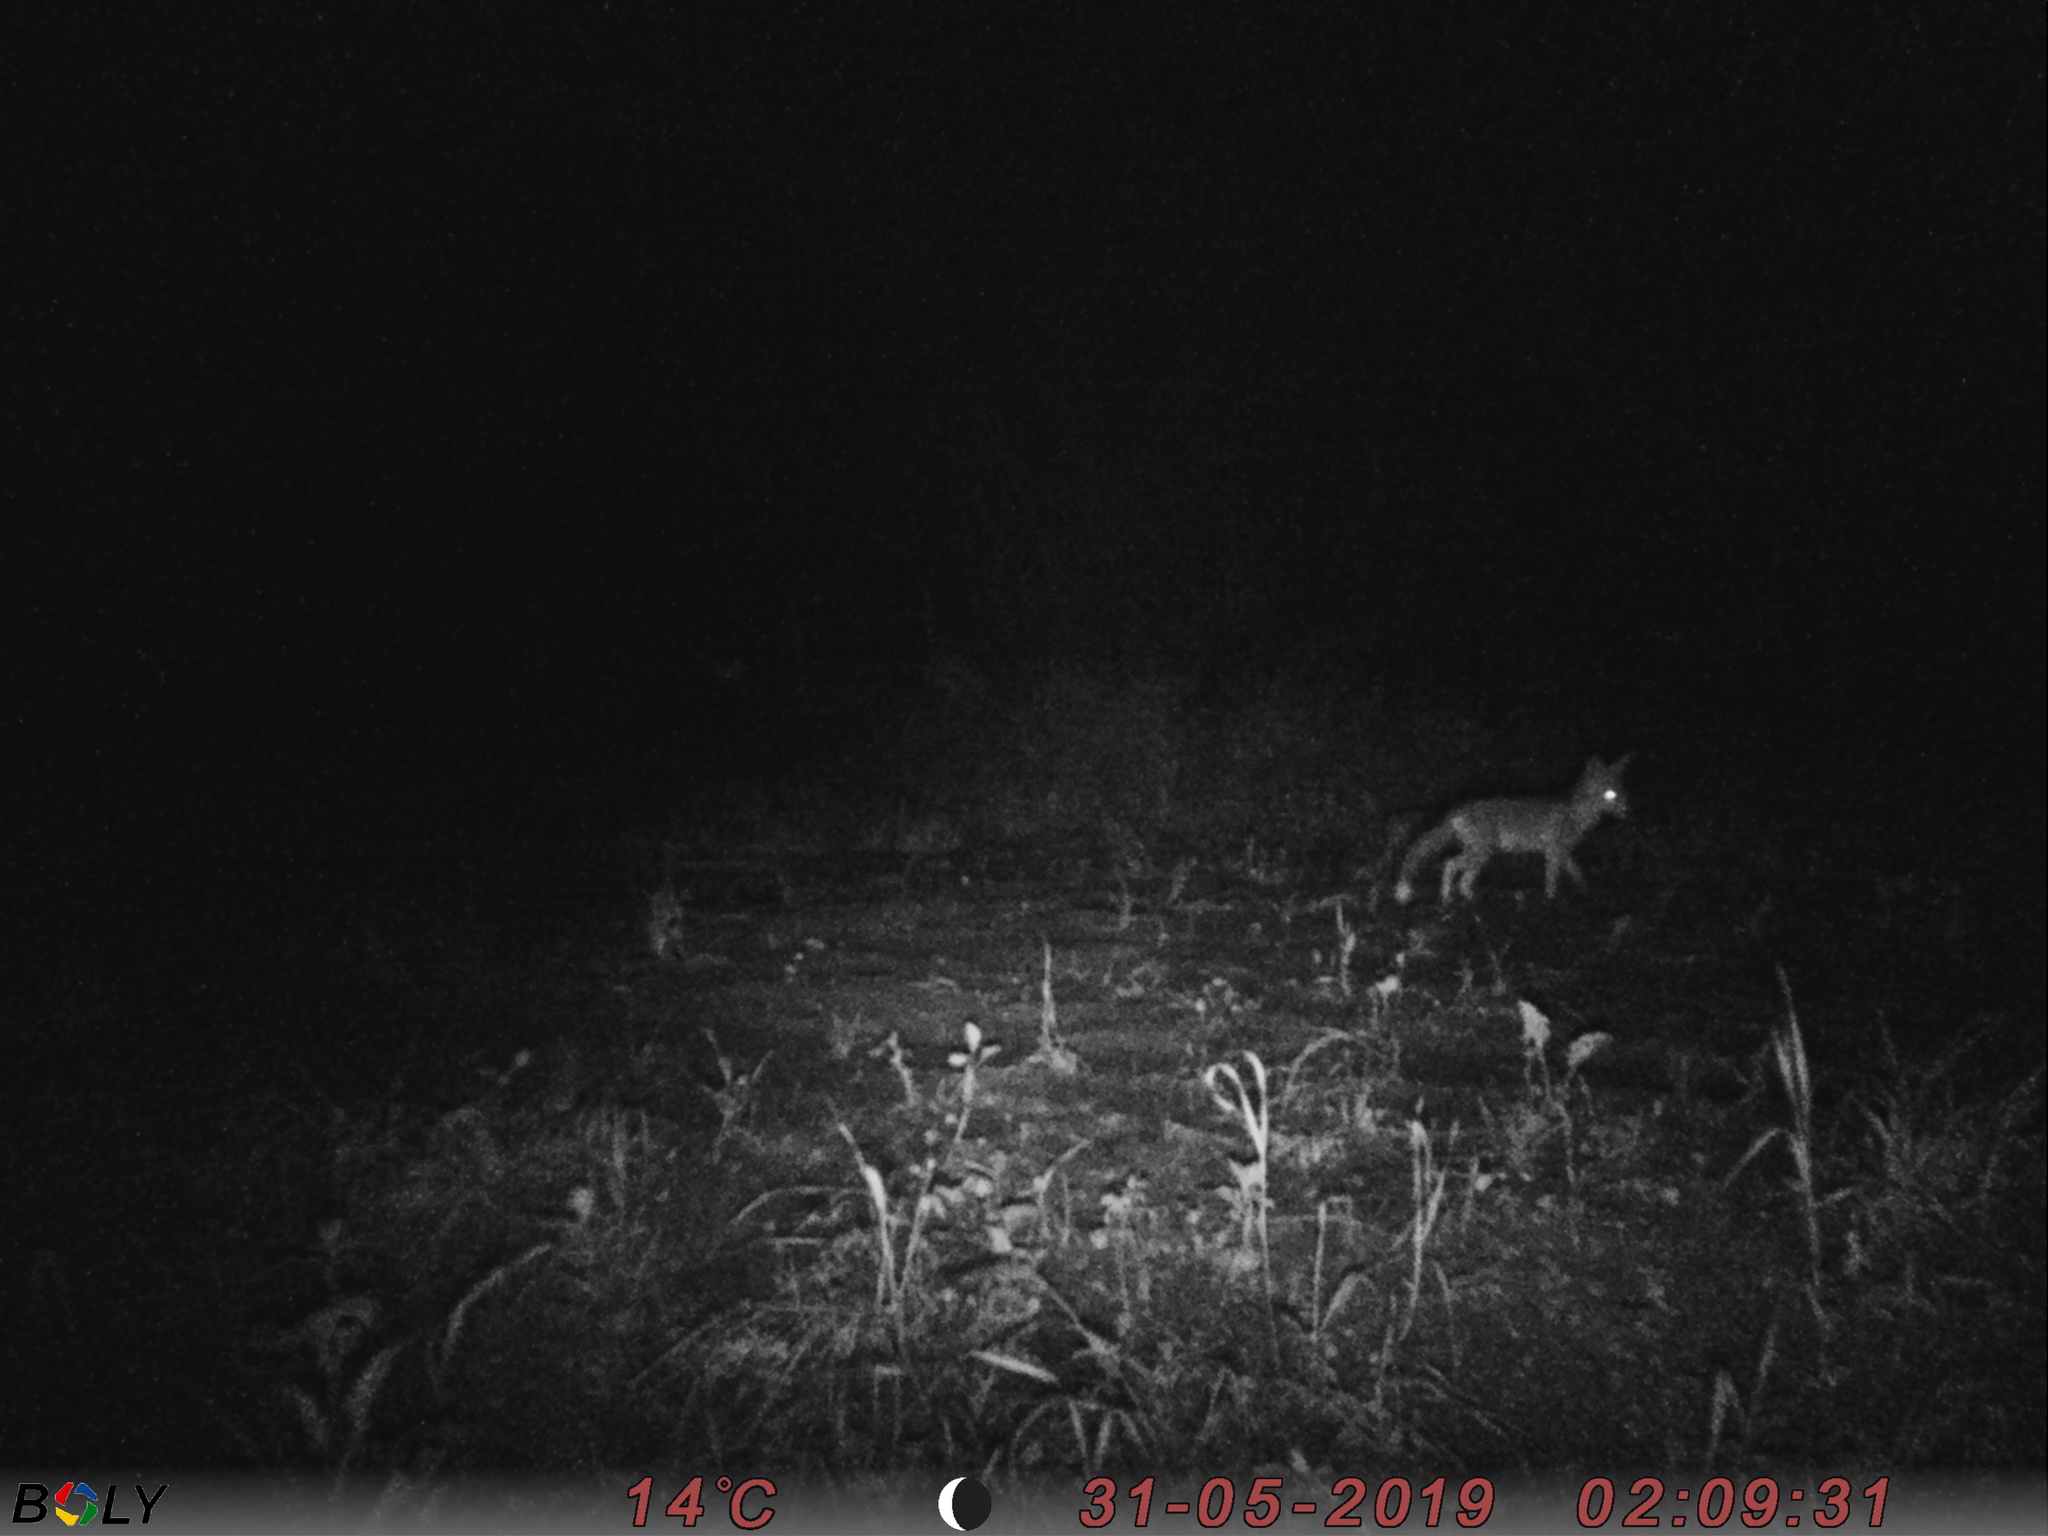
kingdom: Animalia
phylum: Chordata
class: Mammalia
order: Carnivora
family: Canidae
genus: Vulpes
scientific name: Vulpes vulpes
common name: Red fox
